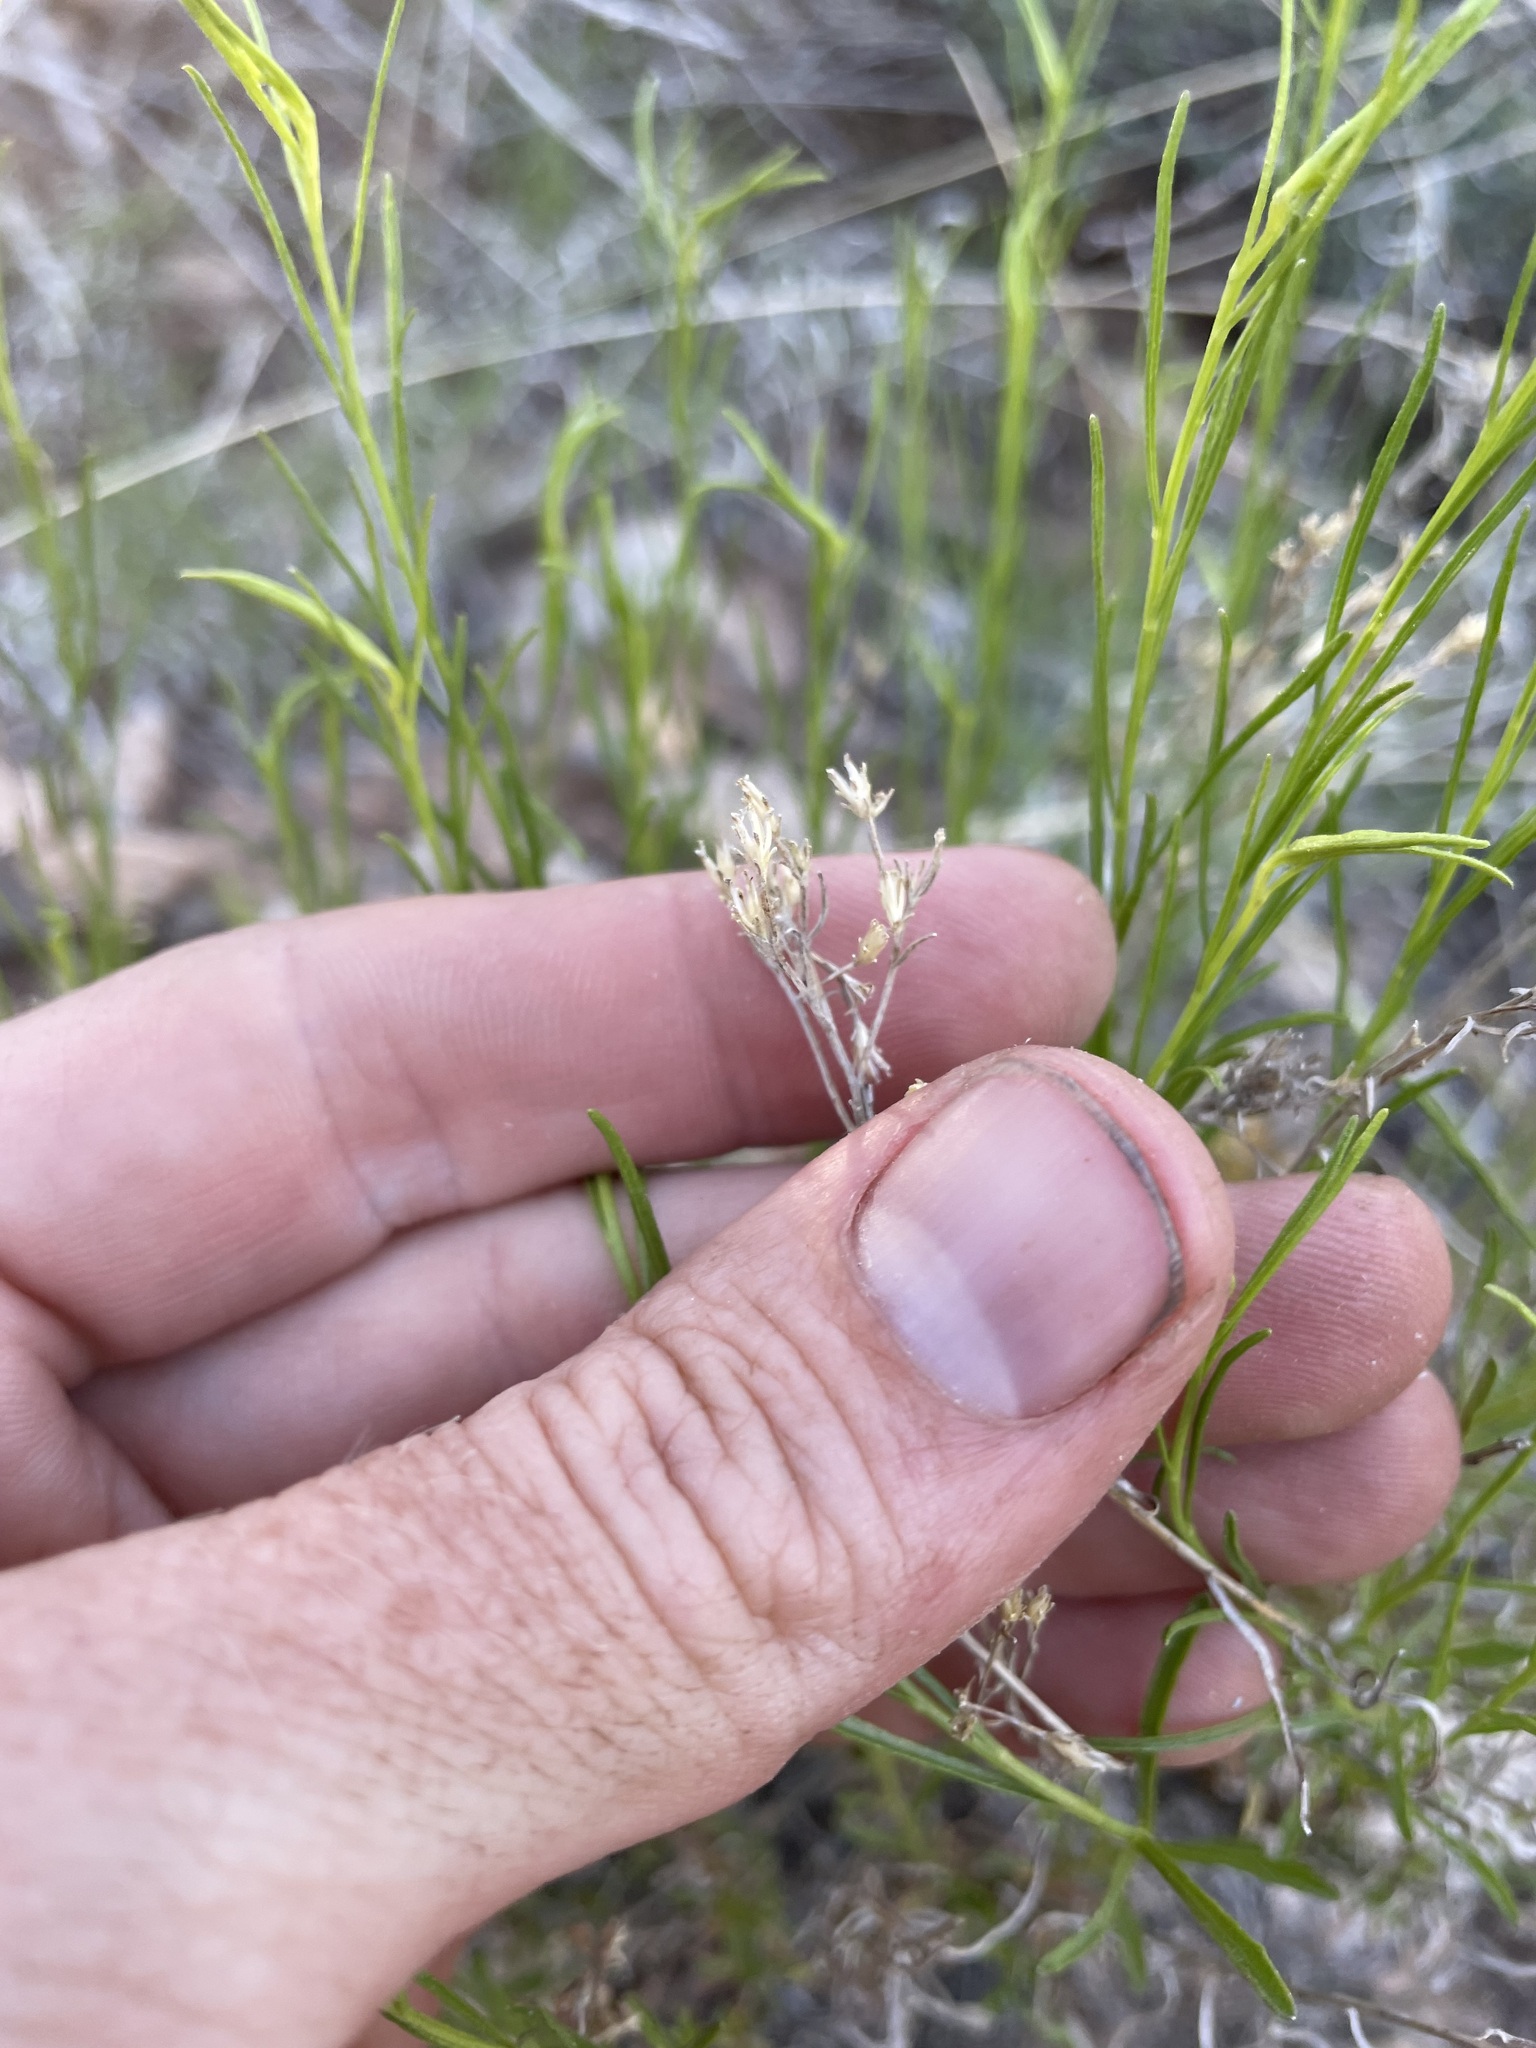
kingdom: Plantae
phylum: Tracheophyta
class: Magnoliopsida
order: Asterales
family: Asteraceae
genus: Gutierrezia
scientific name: Gutierrezia sarothrae
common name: Broom snakeweed
